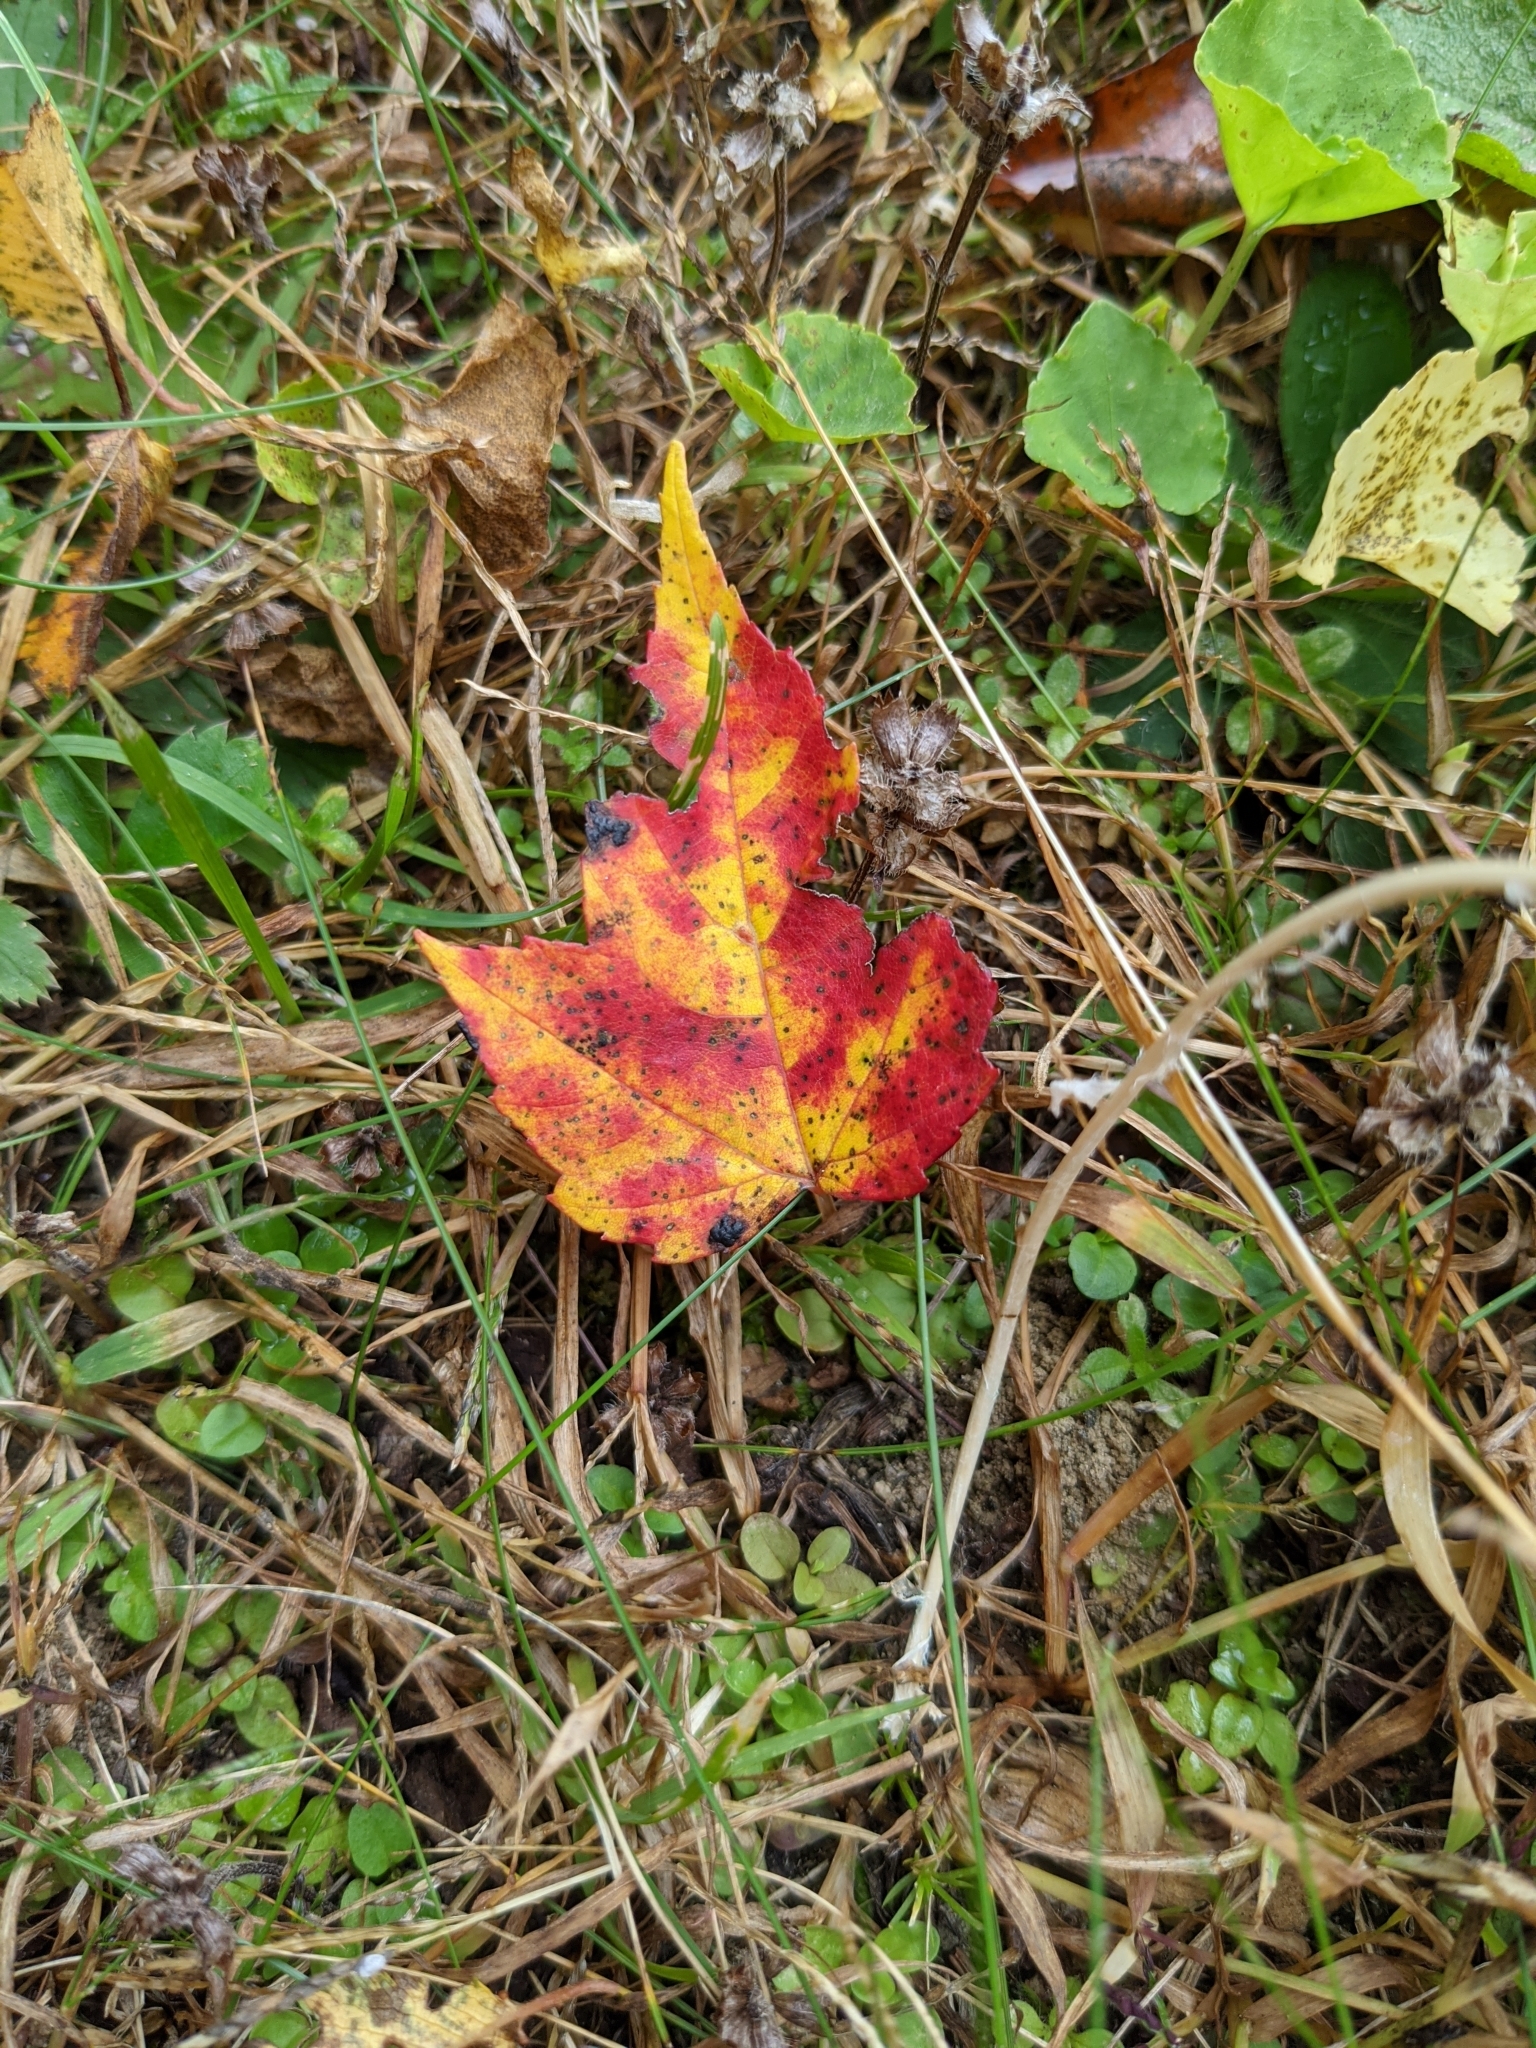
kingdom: Plantae
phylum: Tracheophyta
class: Magnoliopsida
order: Sapindales
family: Sapindaceae
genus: Acer
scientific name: Acer rubrum
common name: Red maple
